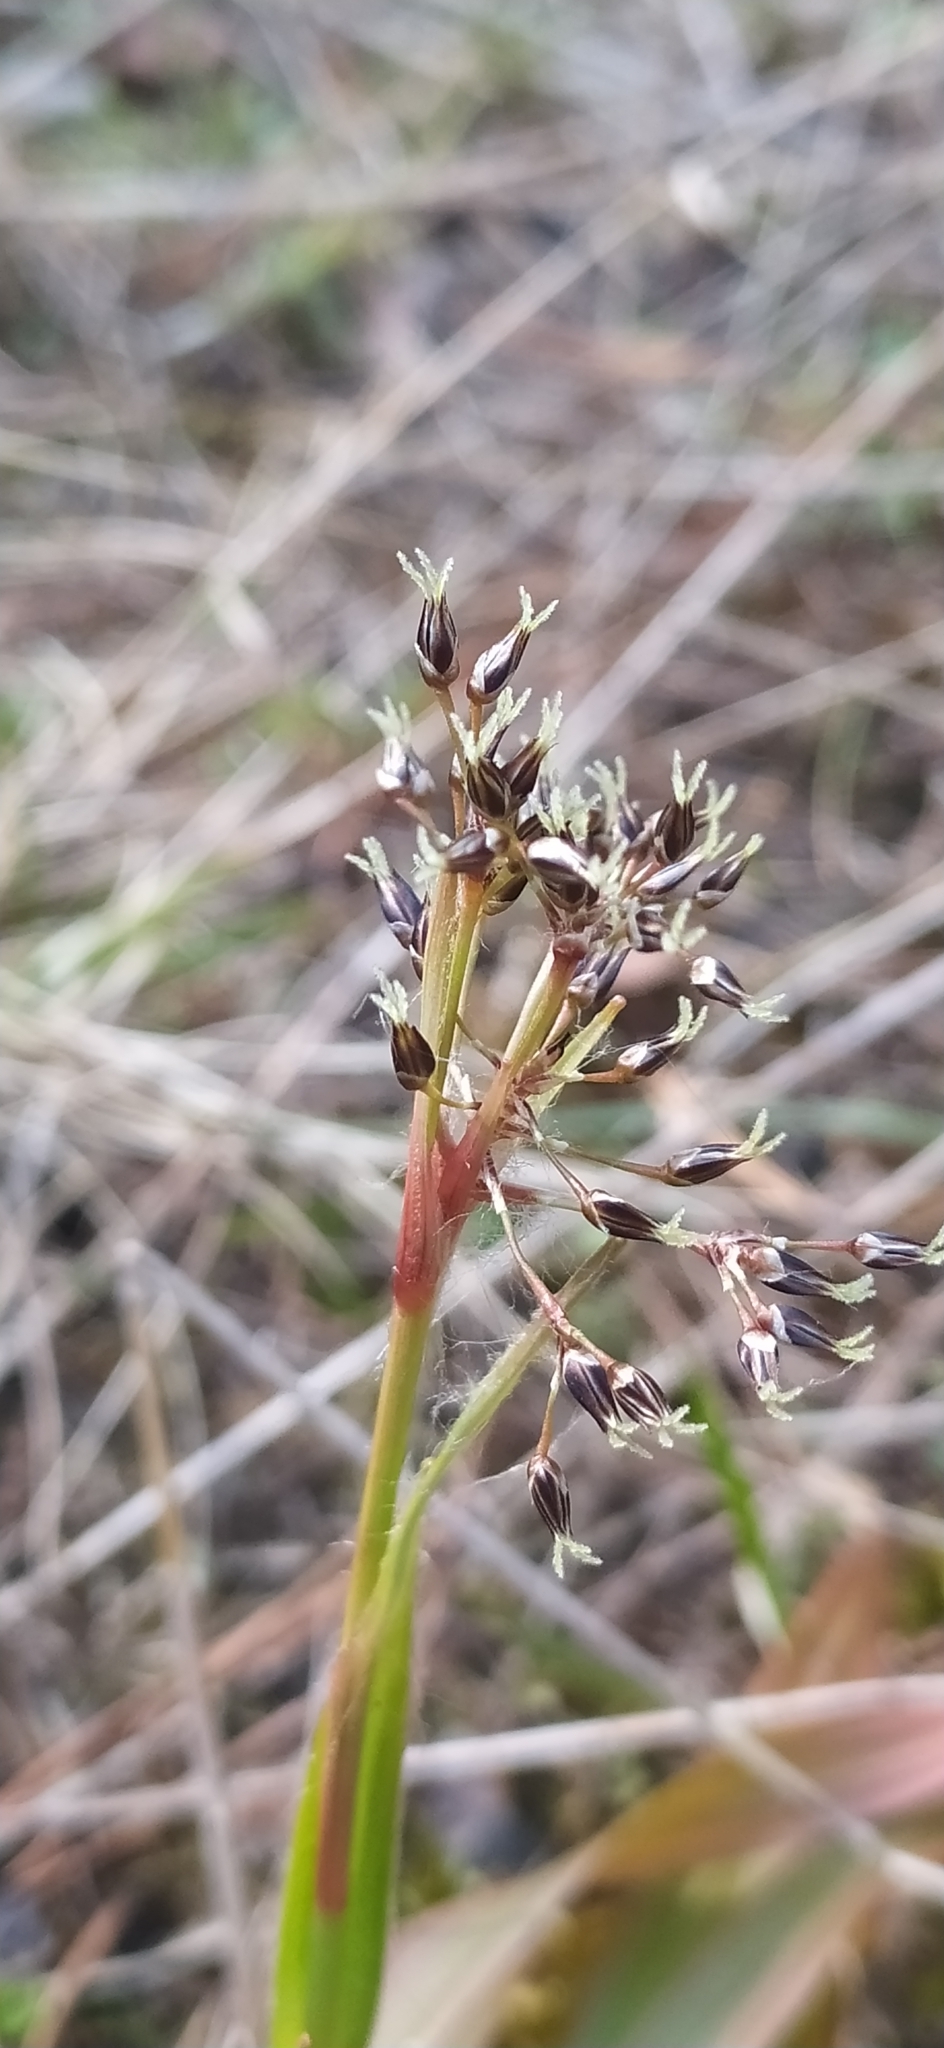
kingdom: Plantae
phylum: Tracheophyta
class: Liliopsida
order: Poales
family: Juncaceae
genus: Luzula
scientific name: Luzula pilosa
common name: Hairy wood-rush
